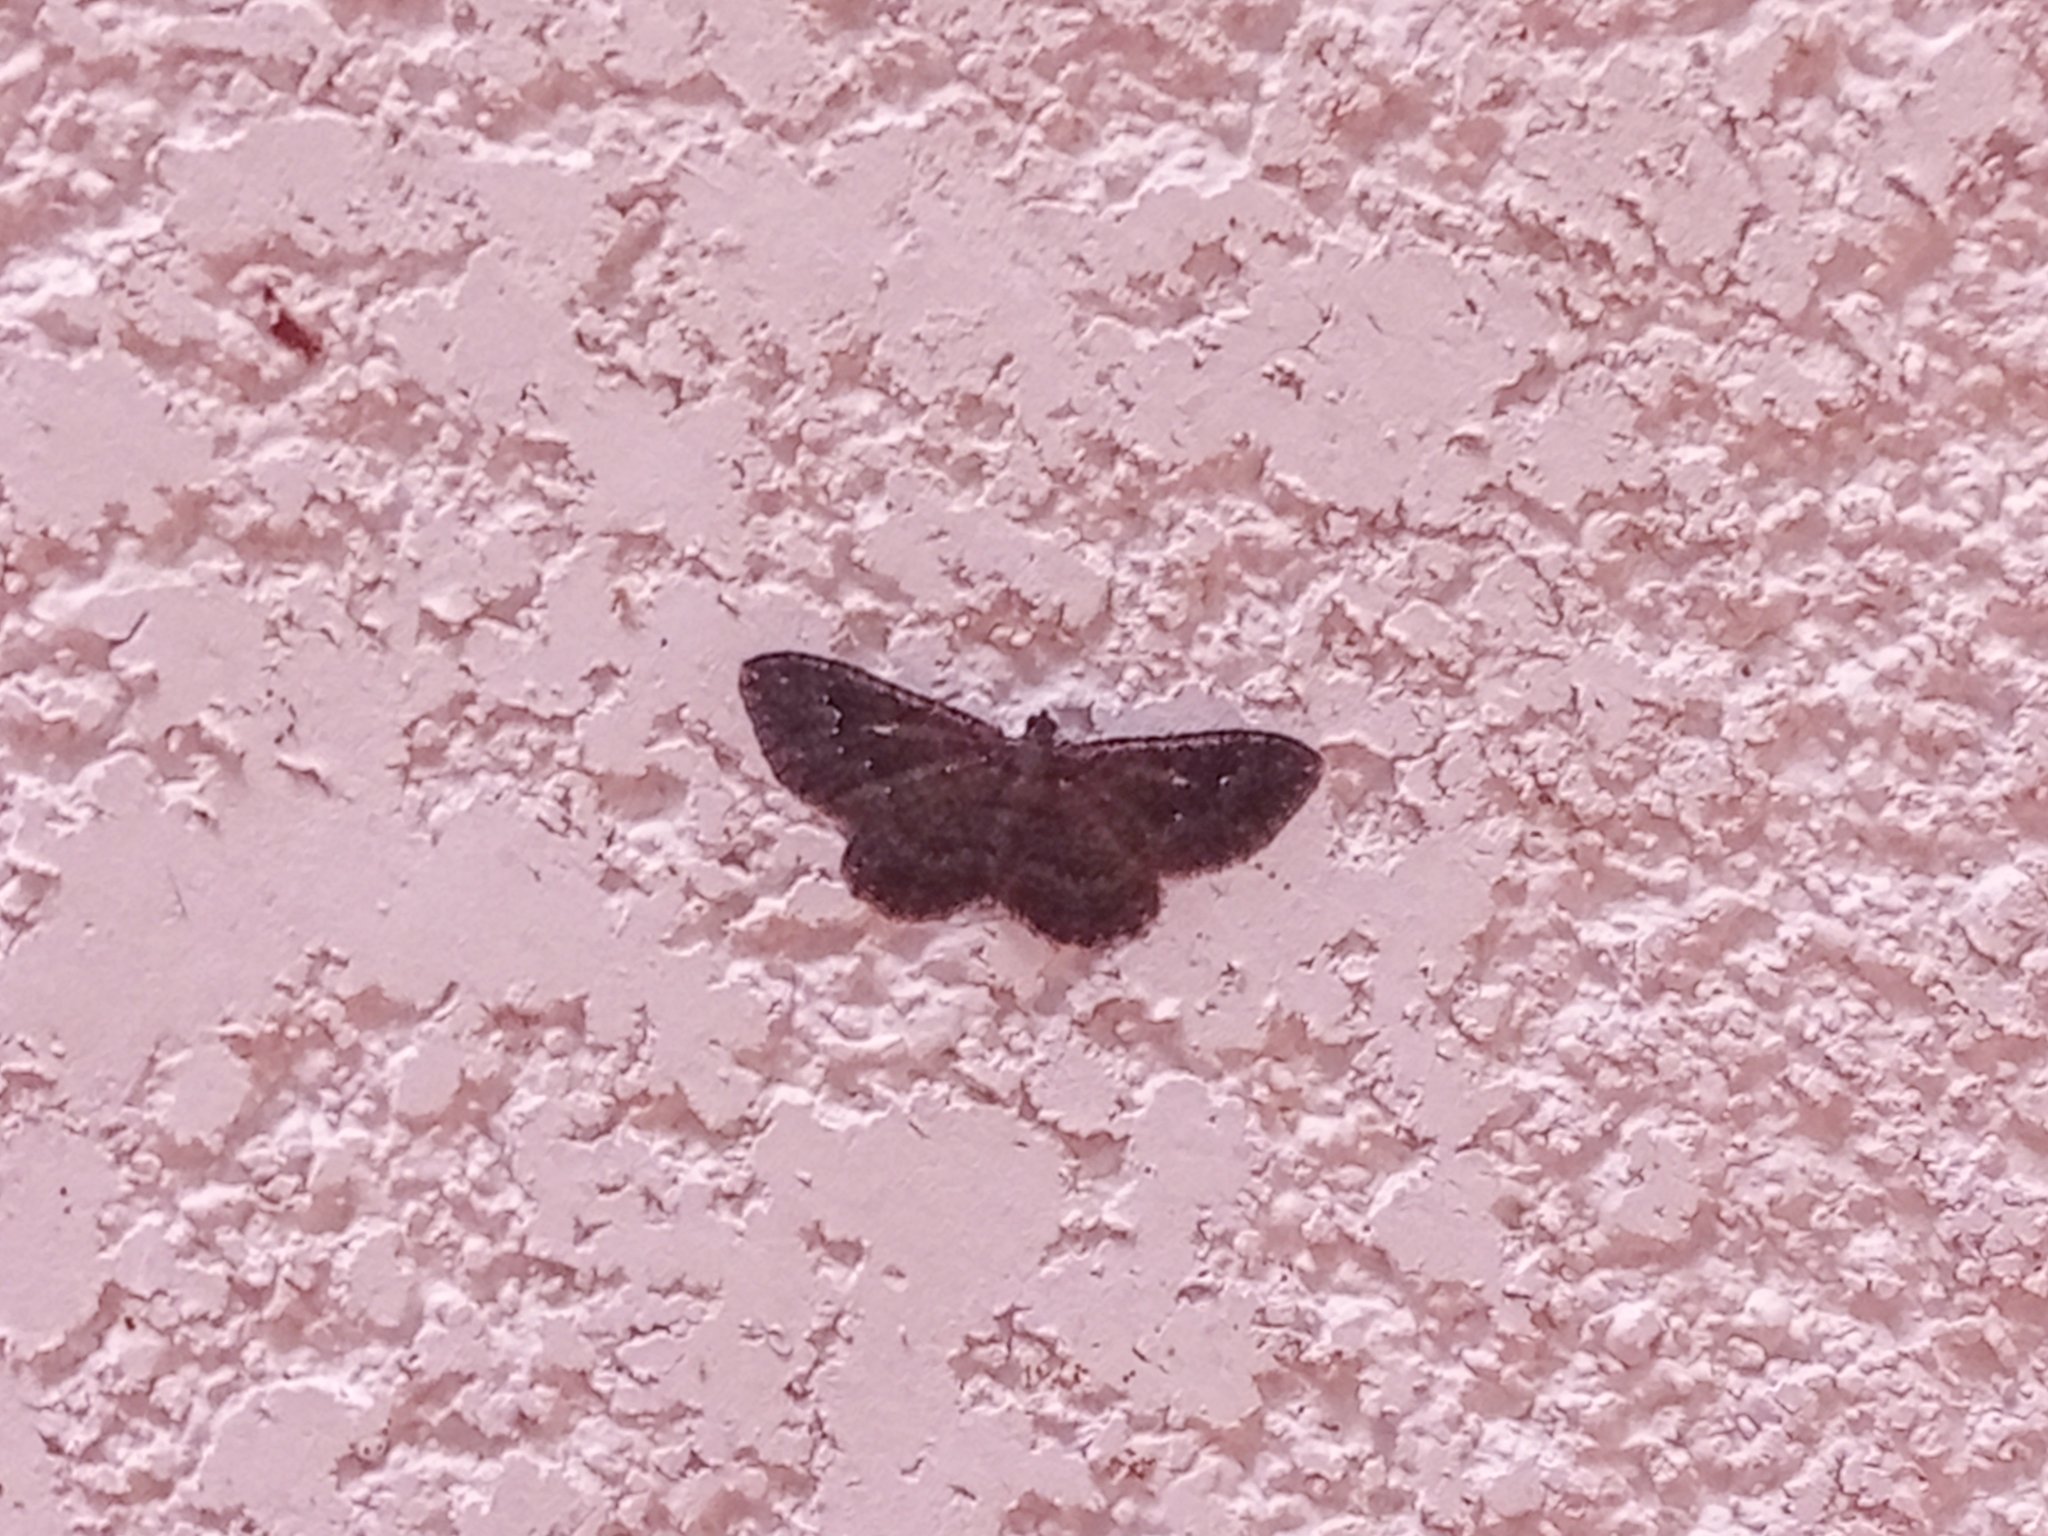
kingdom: Animalia
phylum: Arthropoda
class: Insecta
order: Lepidoptera
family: Geometridae
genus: Disclisioprocta
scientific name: Disclisioprocta stellata
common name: Somber carpet
